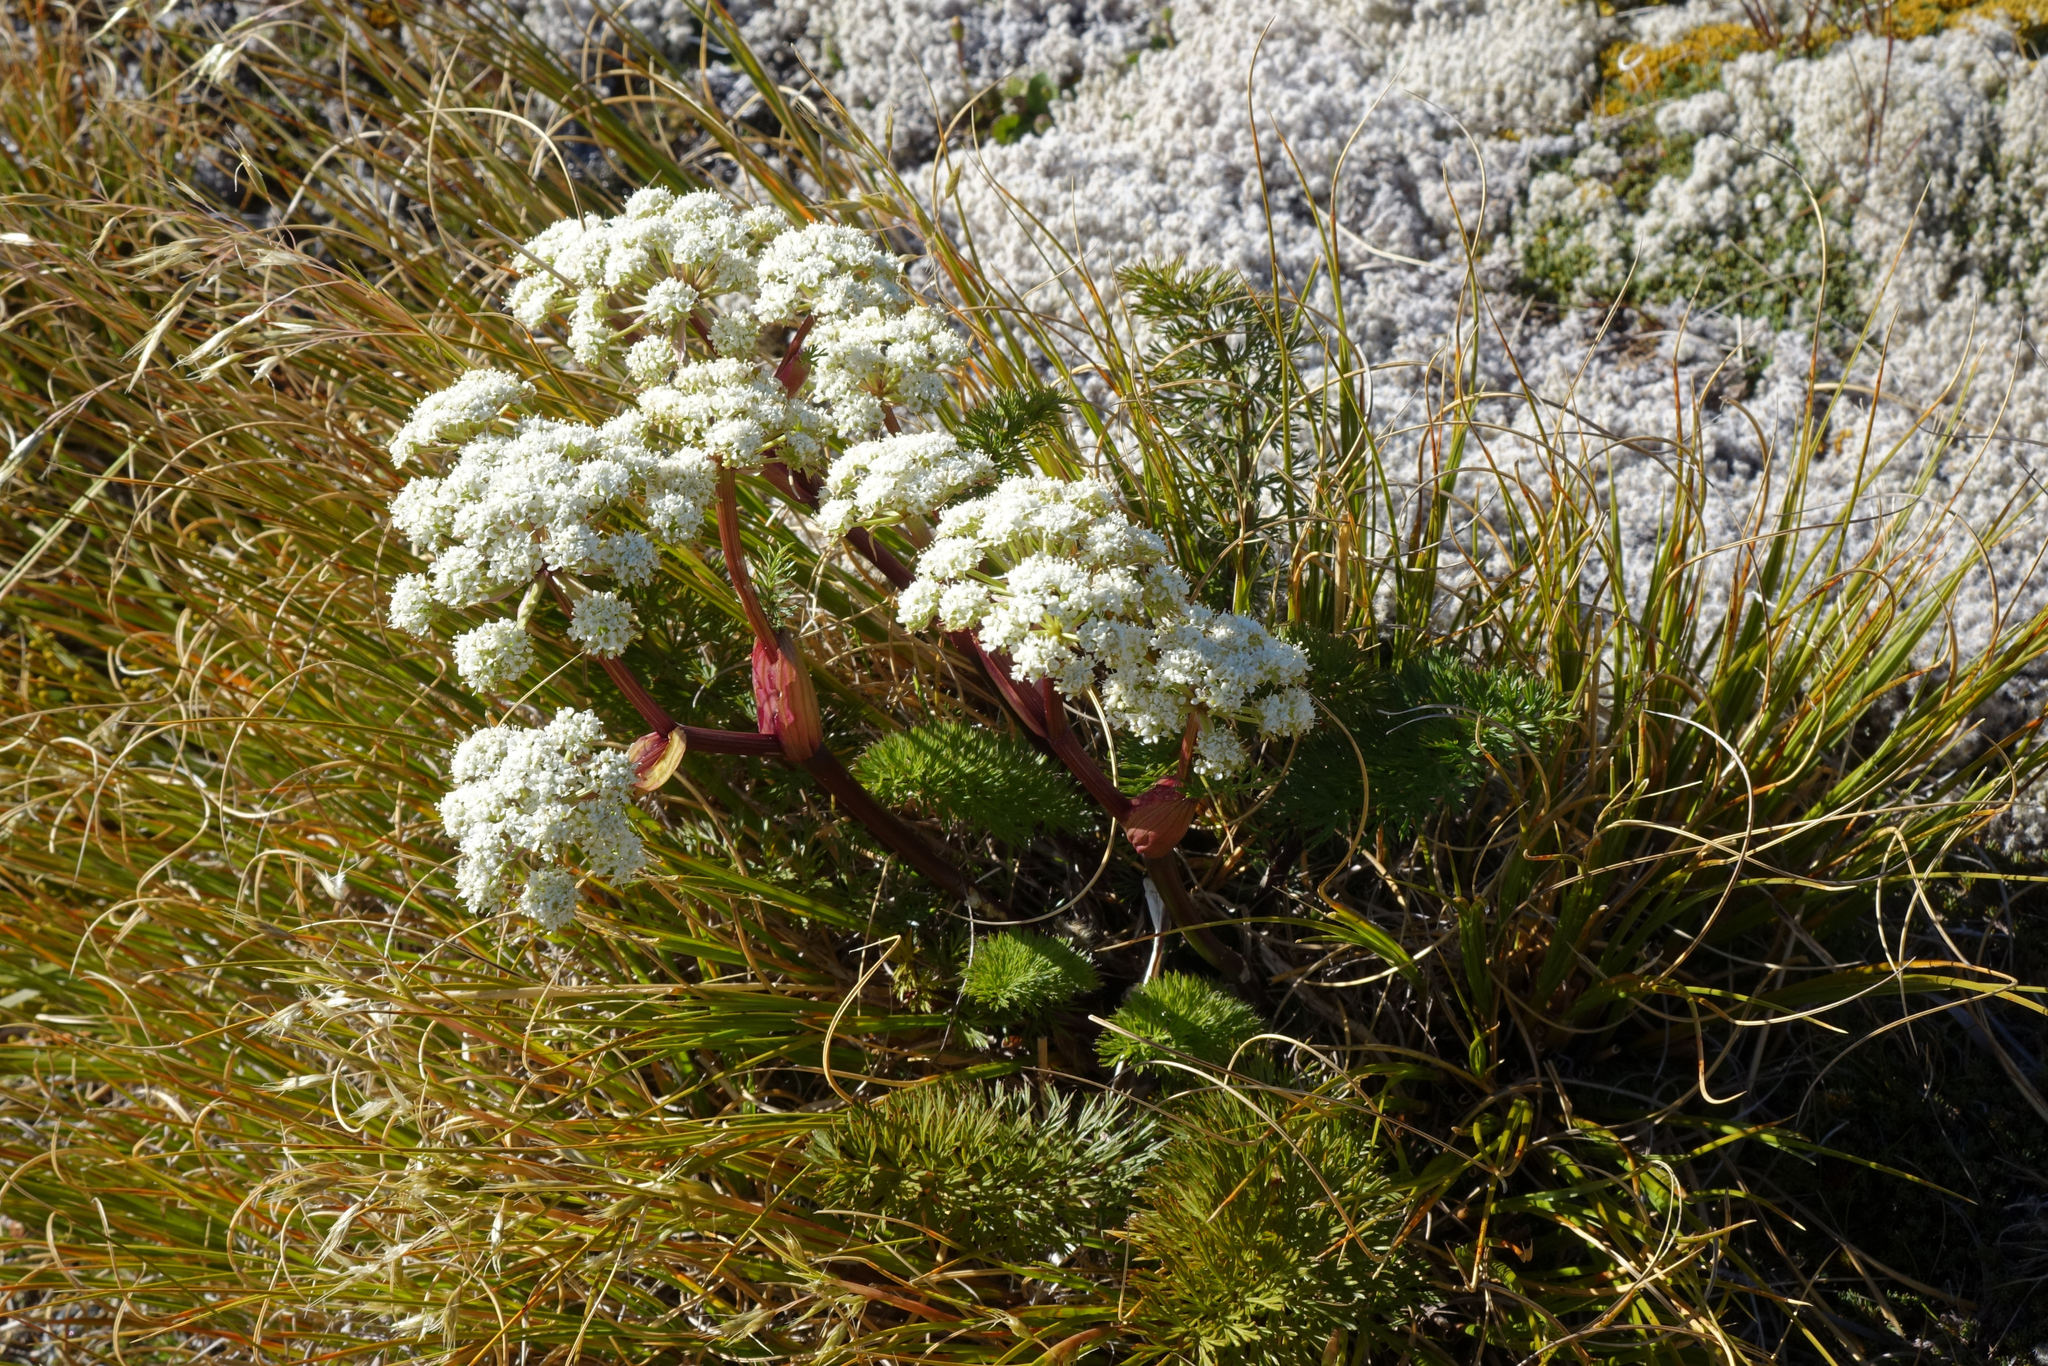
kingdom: Plantae
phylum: Tracheophyta
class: Magnoliopsida
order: Apiales
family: Apiaceae
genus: Anisotome
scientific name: Anisotome haastii
